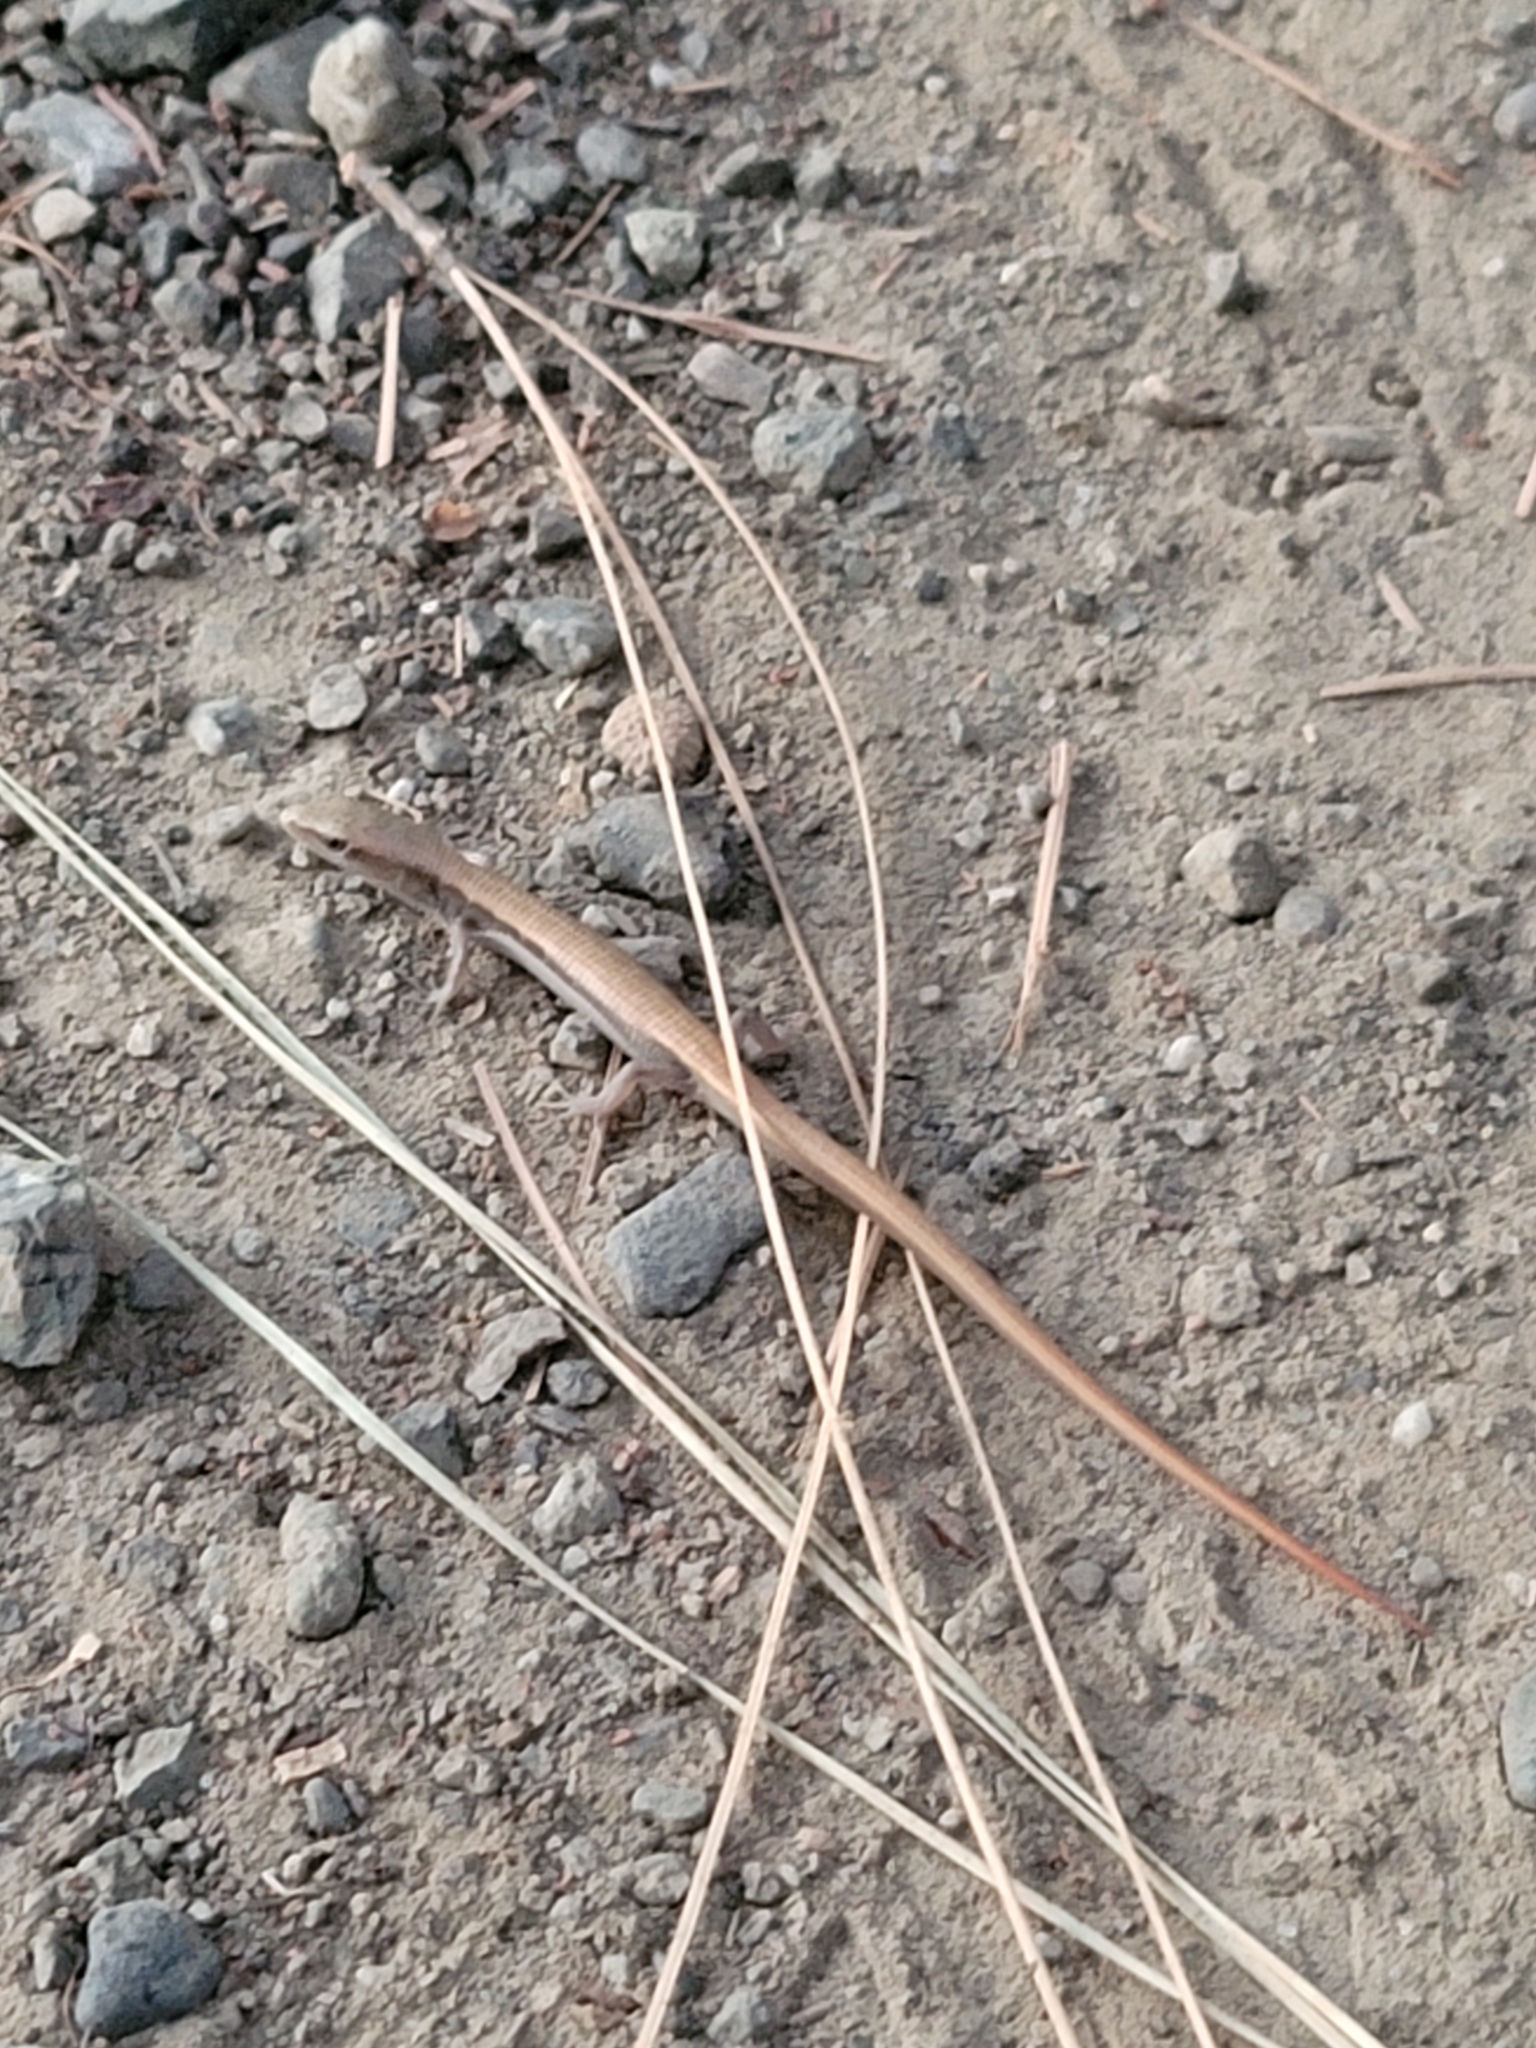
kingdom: Animalia
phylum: Chordata
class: Squamata
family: Anguidae
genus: Elgaria
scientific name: Elgaria multicarinata
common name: Southern alligator lizard
